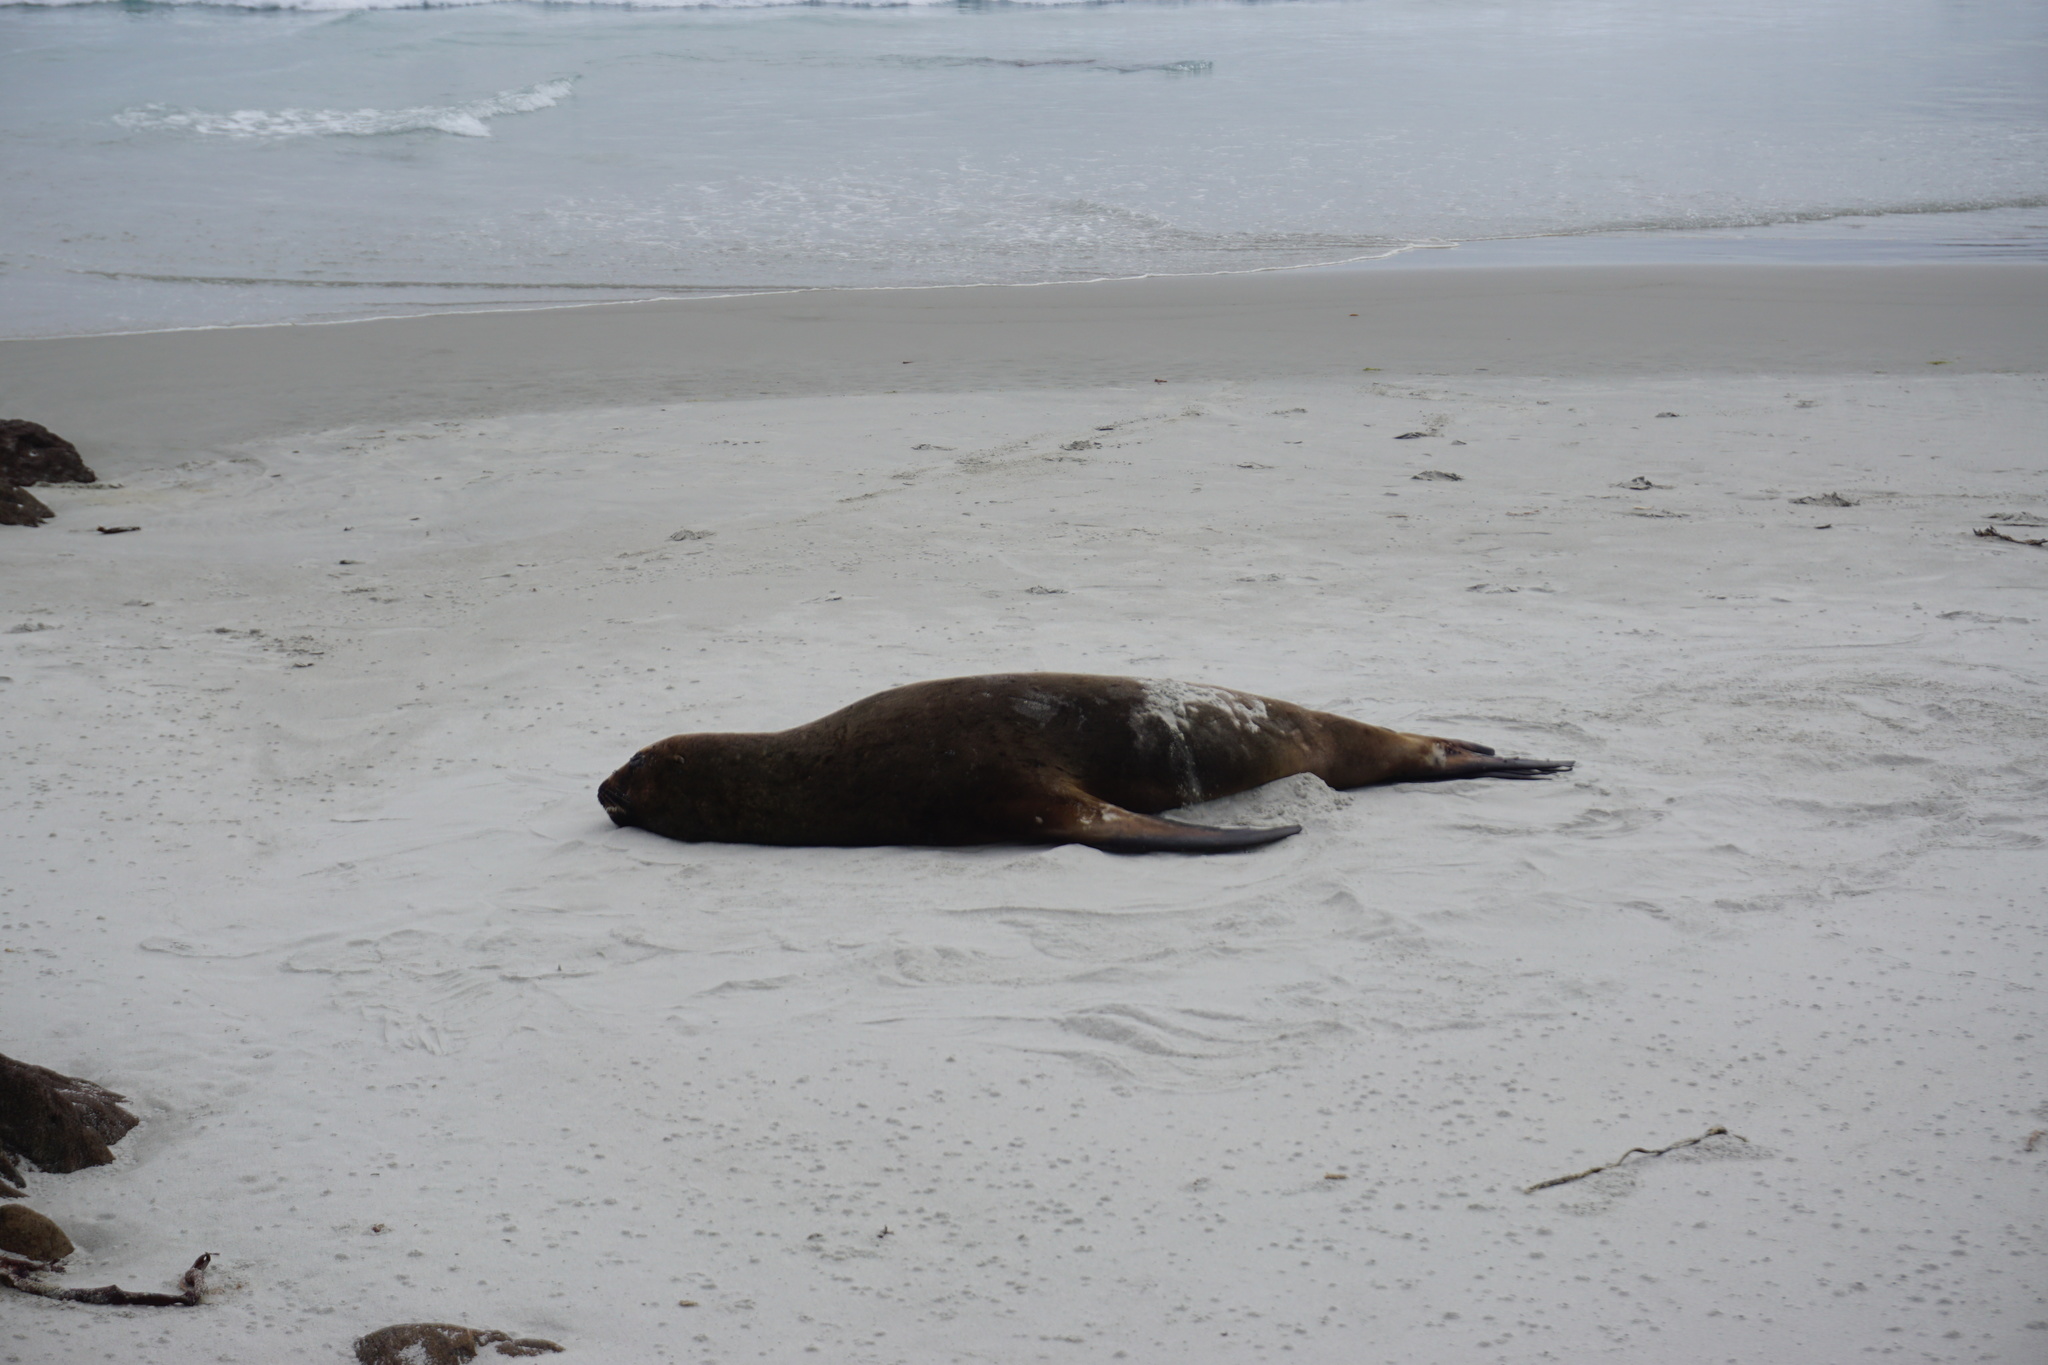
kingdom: Animalia
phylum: Chordata
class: Mammalia
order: Carnivora
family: Otariidae
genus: Phocarctos
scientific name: Phocarctos hookeri
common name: New zealand sea lion
